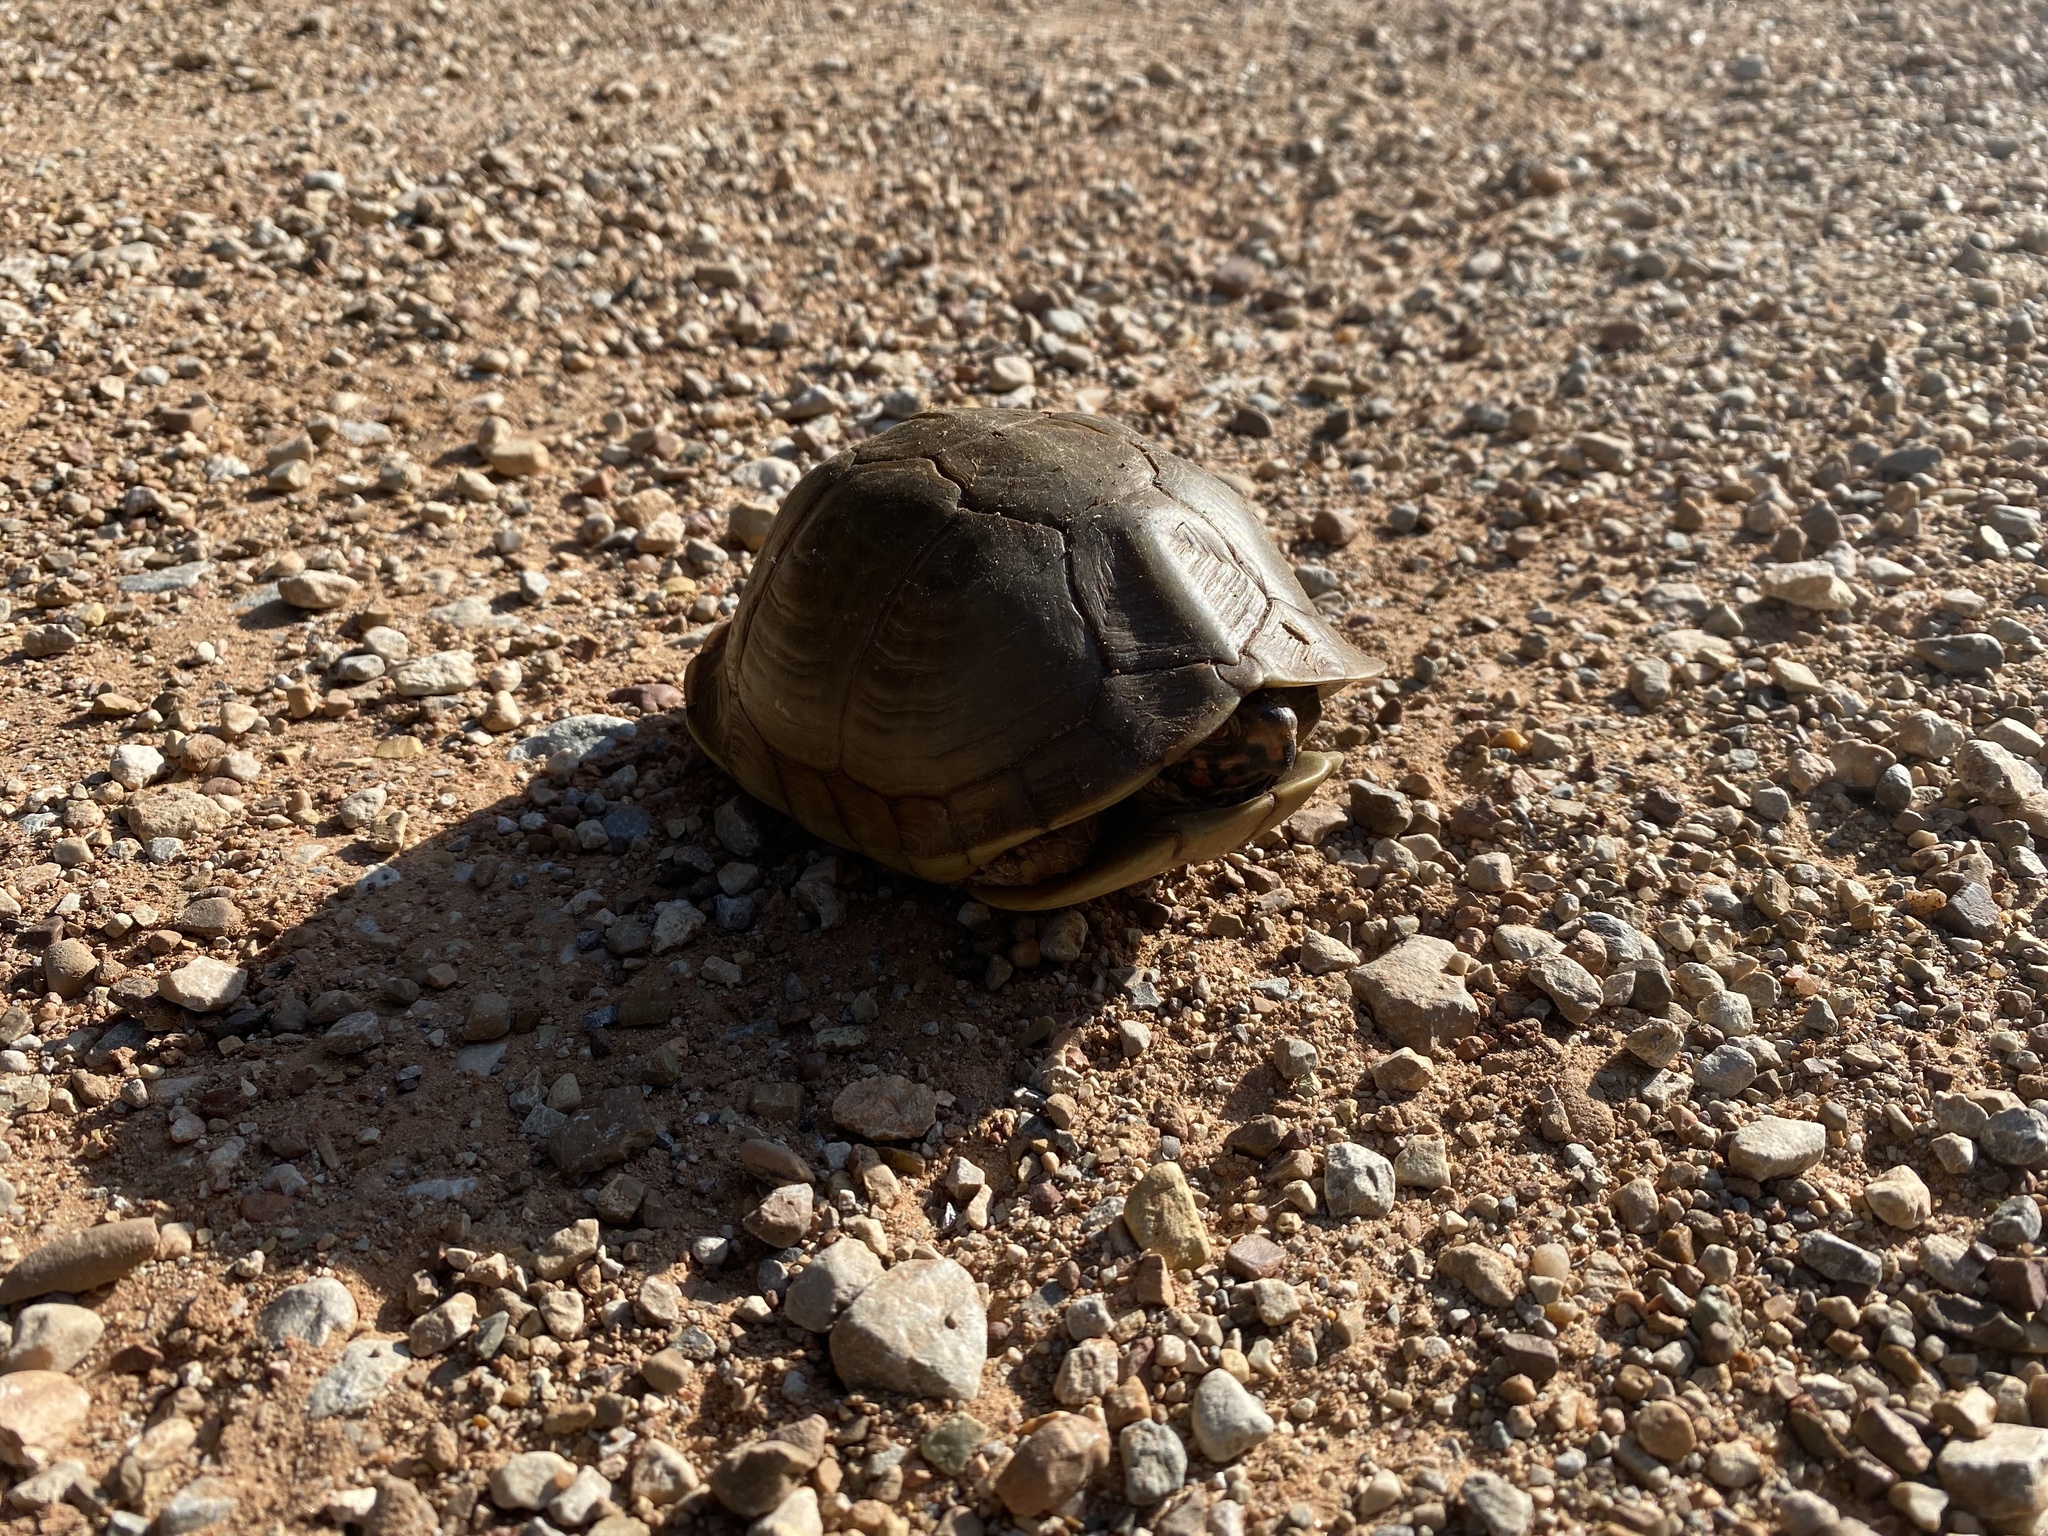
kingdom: Animalia
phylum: Chordata
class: Testudines
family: Emydidae
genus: Terrapene
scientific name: Terrapene carolina
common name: Common box turtle
